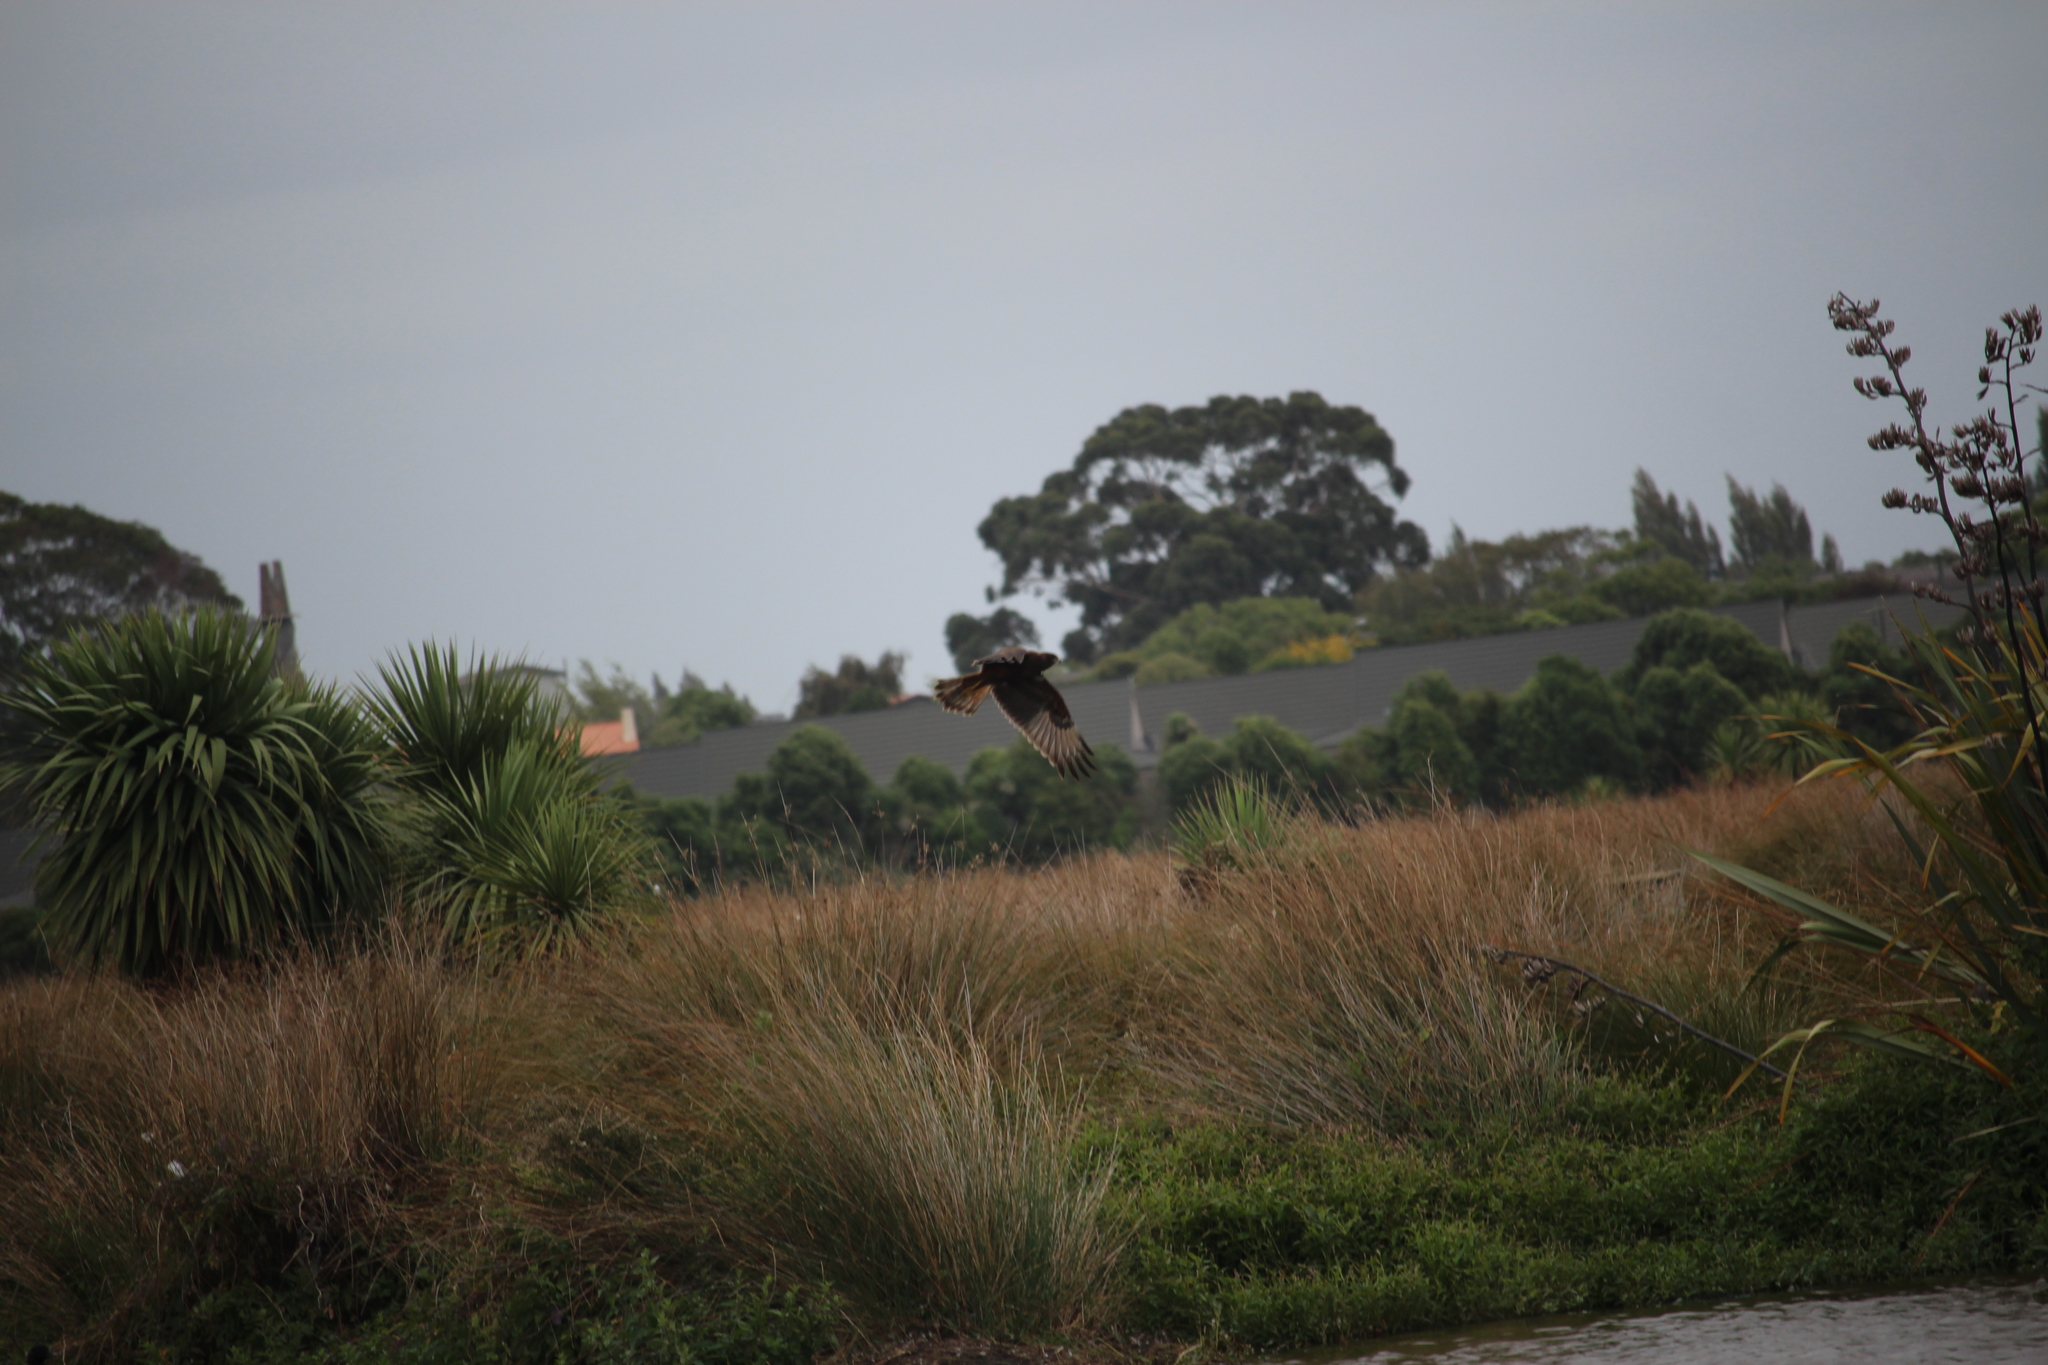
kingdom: Animalia
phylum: Chordata
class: Aves
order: Accipitriformes
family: Accipitridae
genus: Circus
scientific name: Circus approximans
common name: Swamp harrier
